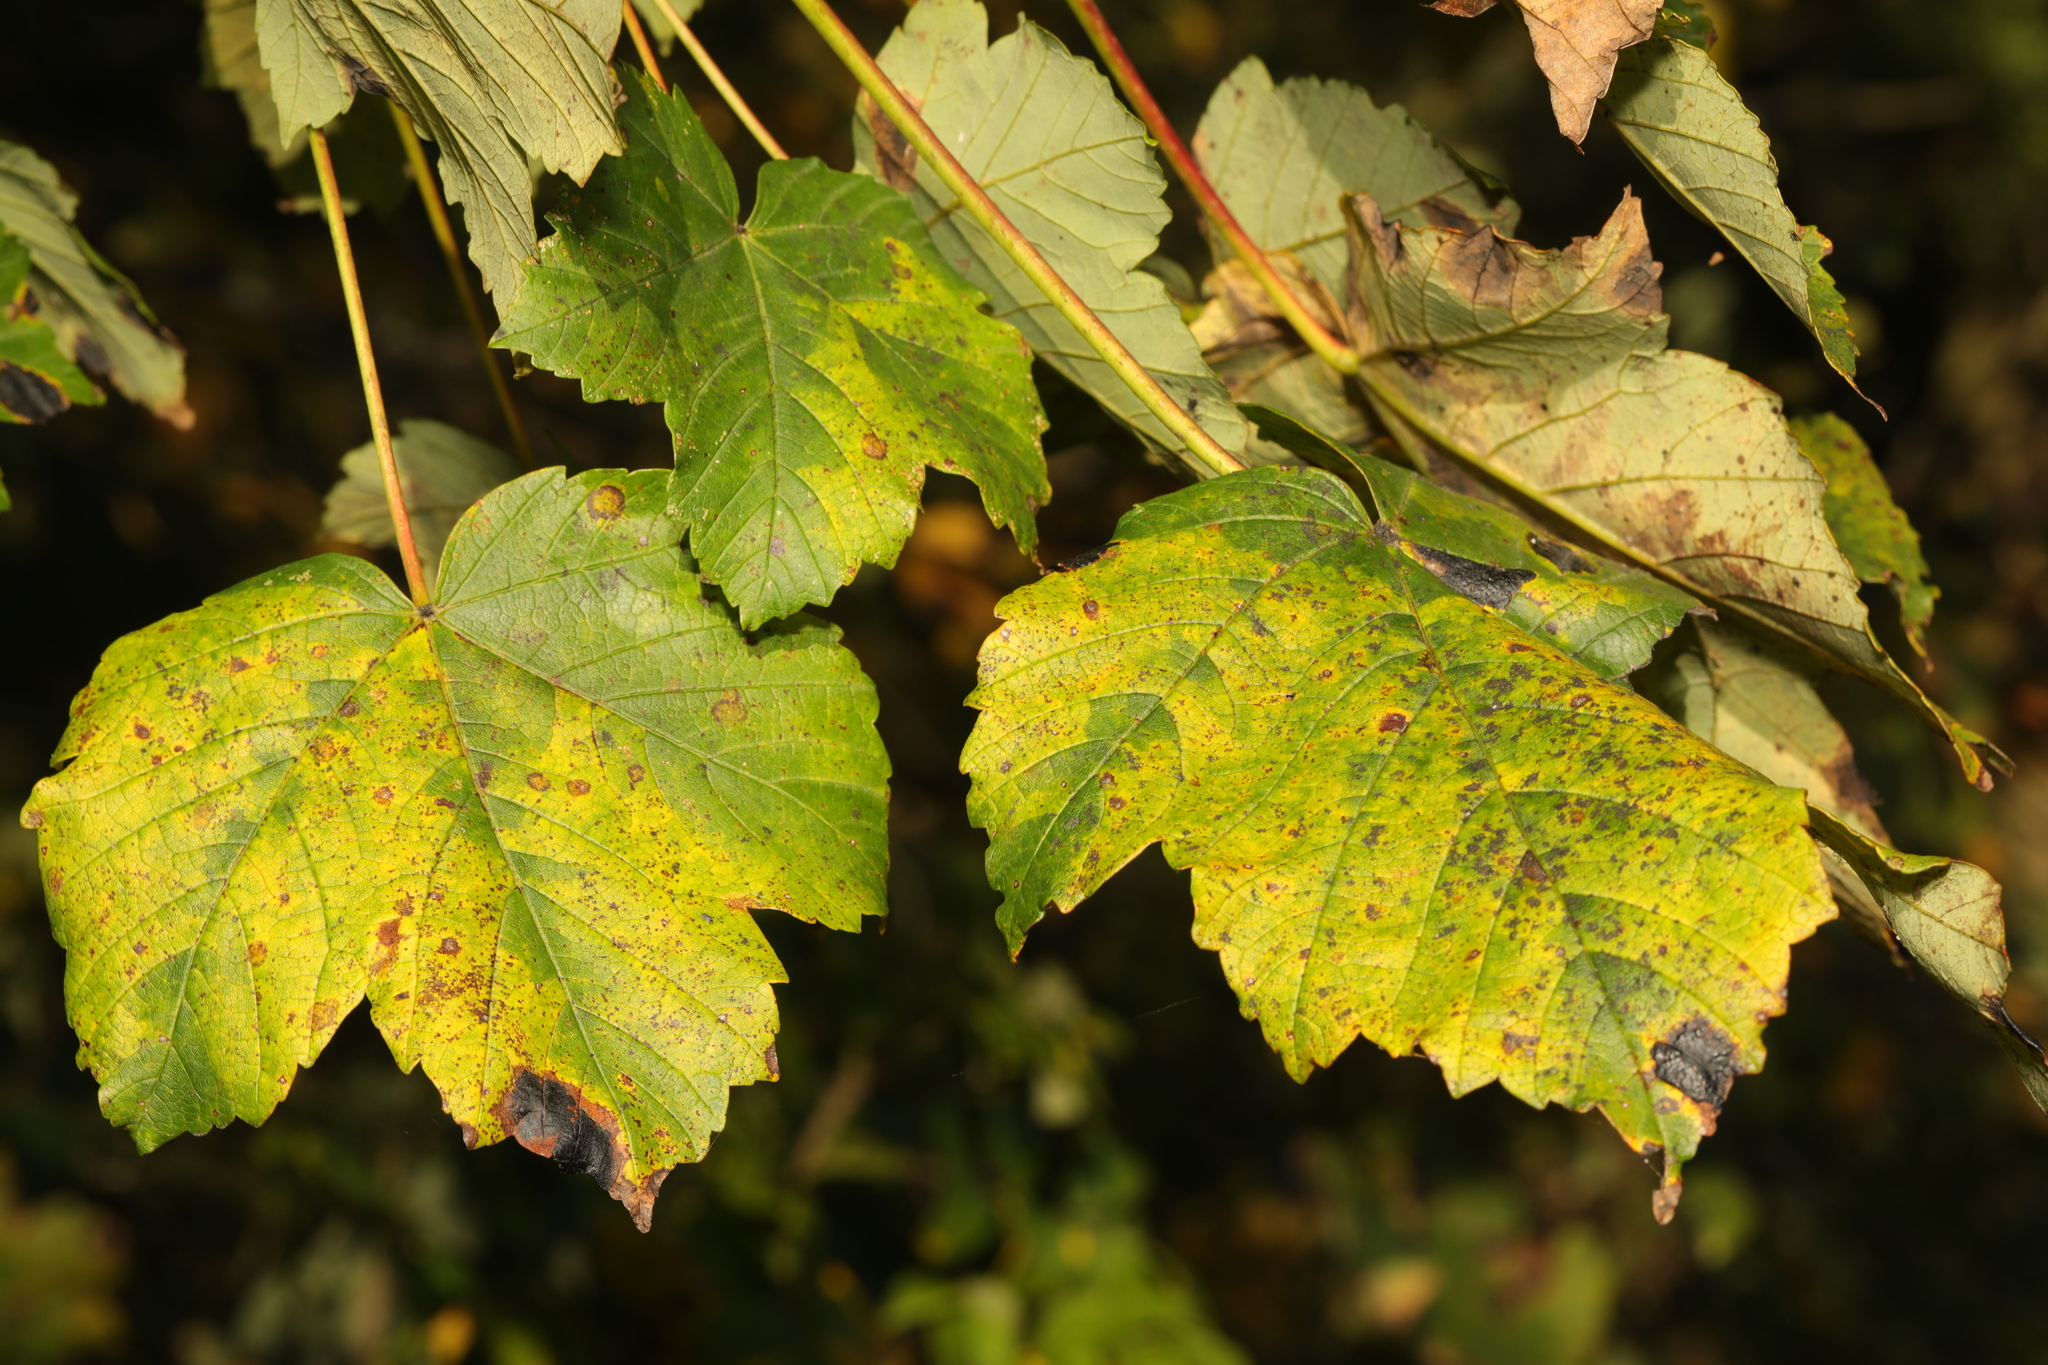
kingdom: Plantae
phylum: Tracheophyta
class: Magnoliopsida
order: Sapindales
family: Sapindaceae
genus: Acer
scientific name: Acer pseudoplatanus
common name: Sycamore
